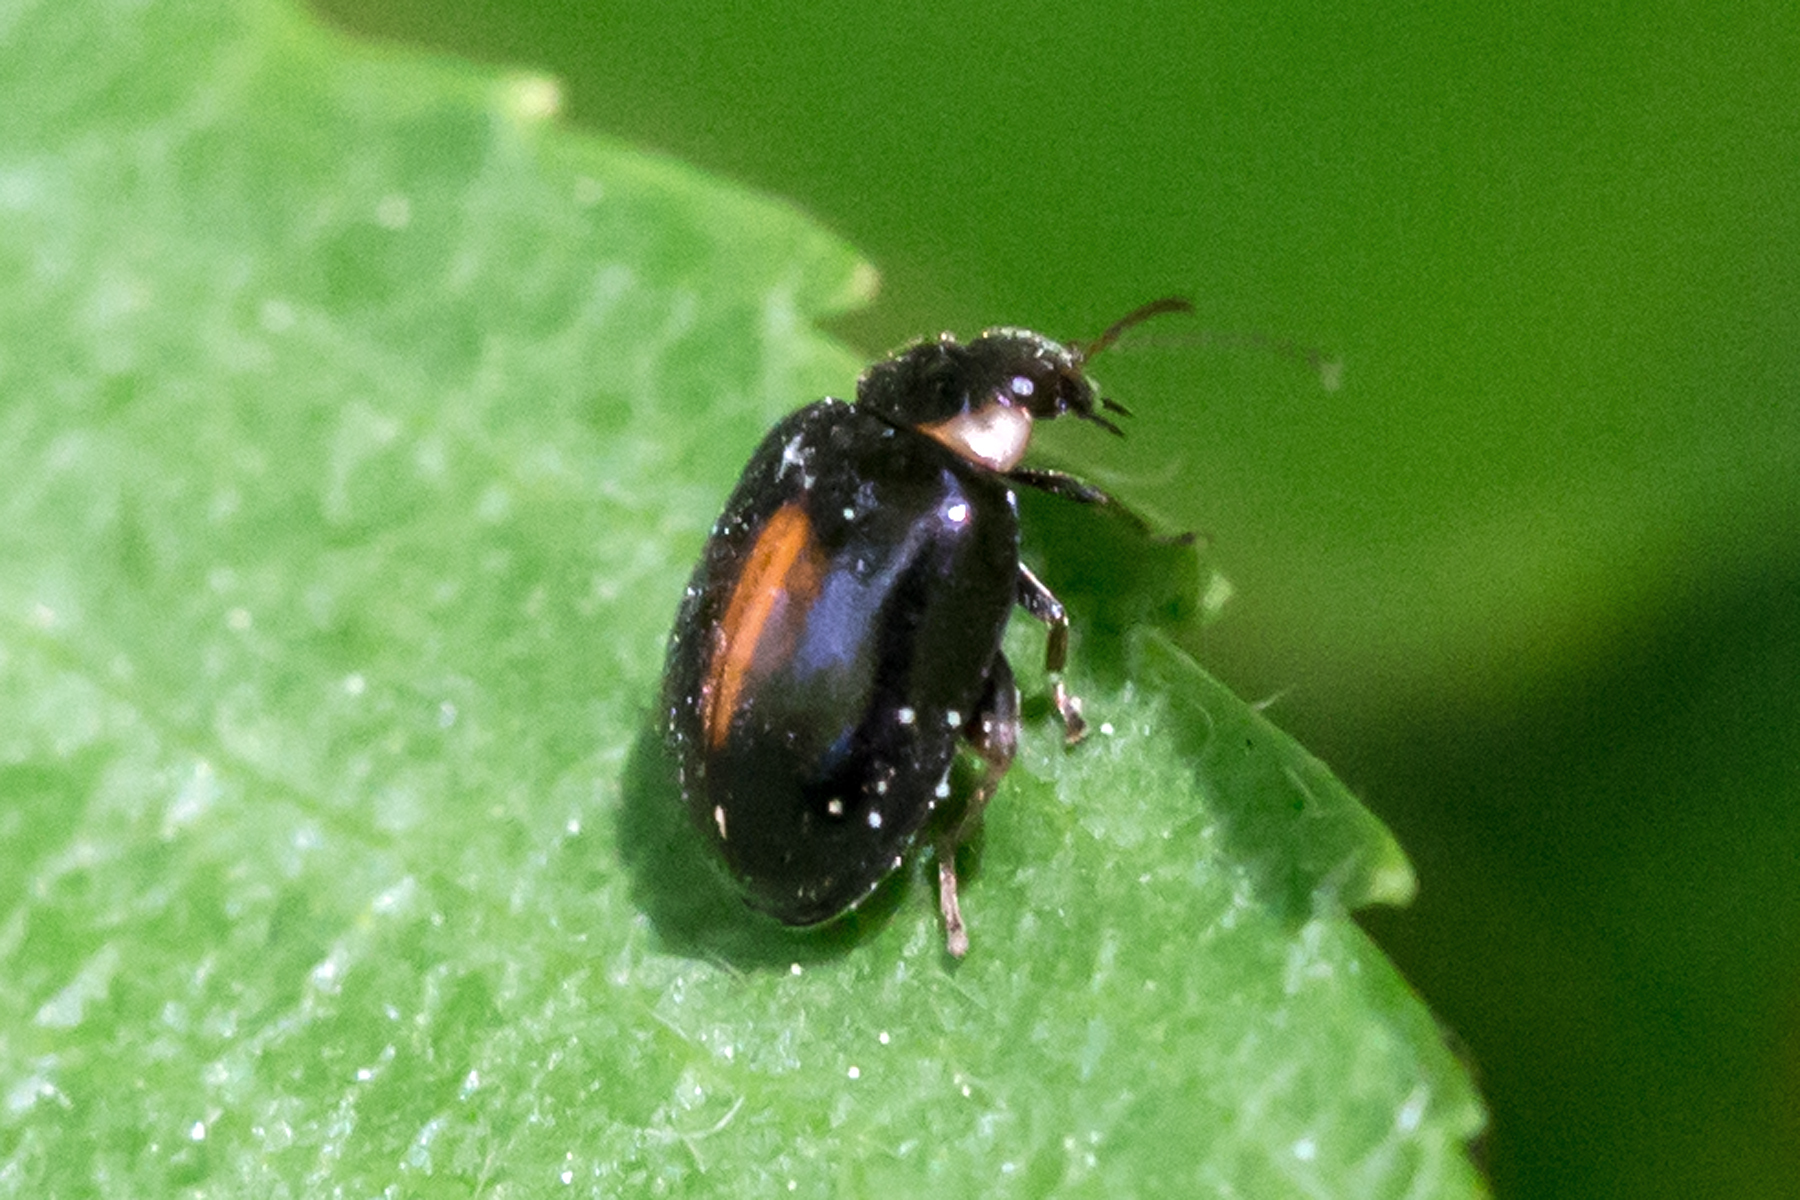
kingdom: Animalia
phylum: Arthropoda
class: Insecta
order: Coleoptera
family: Scirtidae
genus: Scirtes
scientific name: Scirtes orbiculatus
